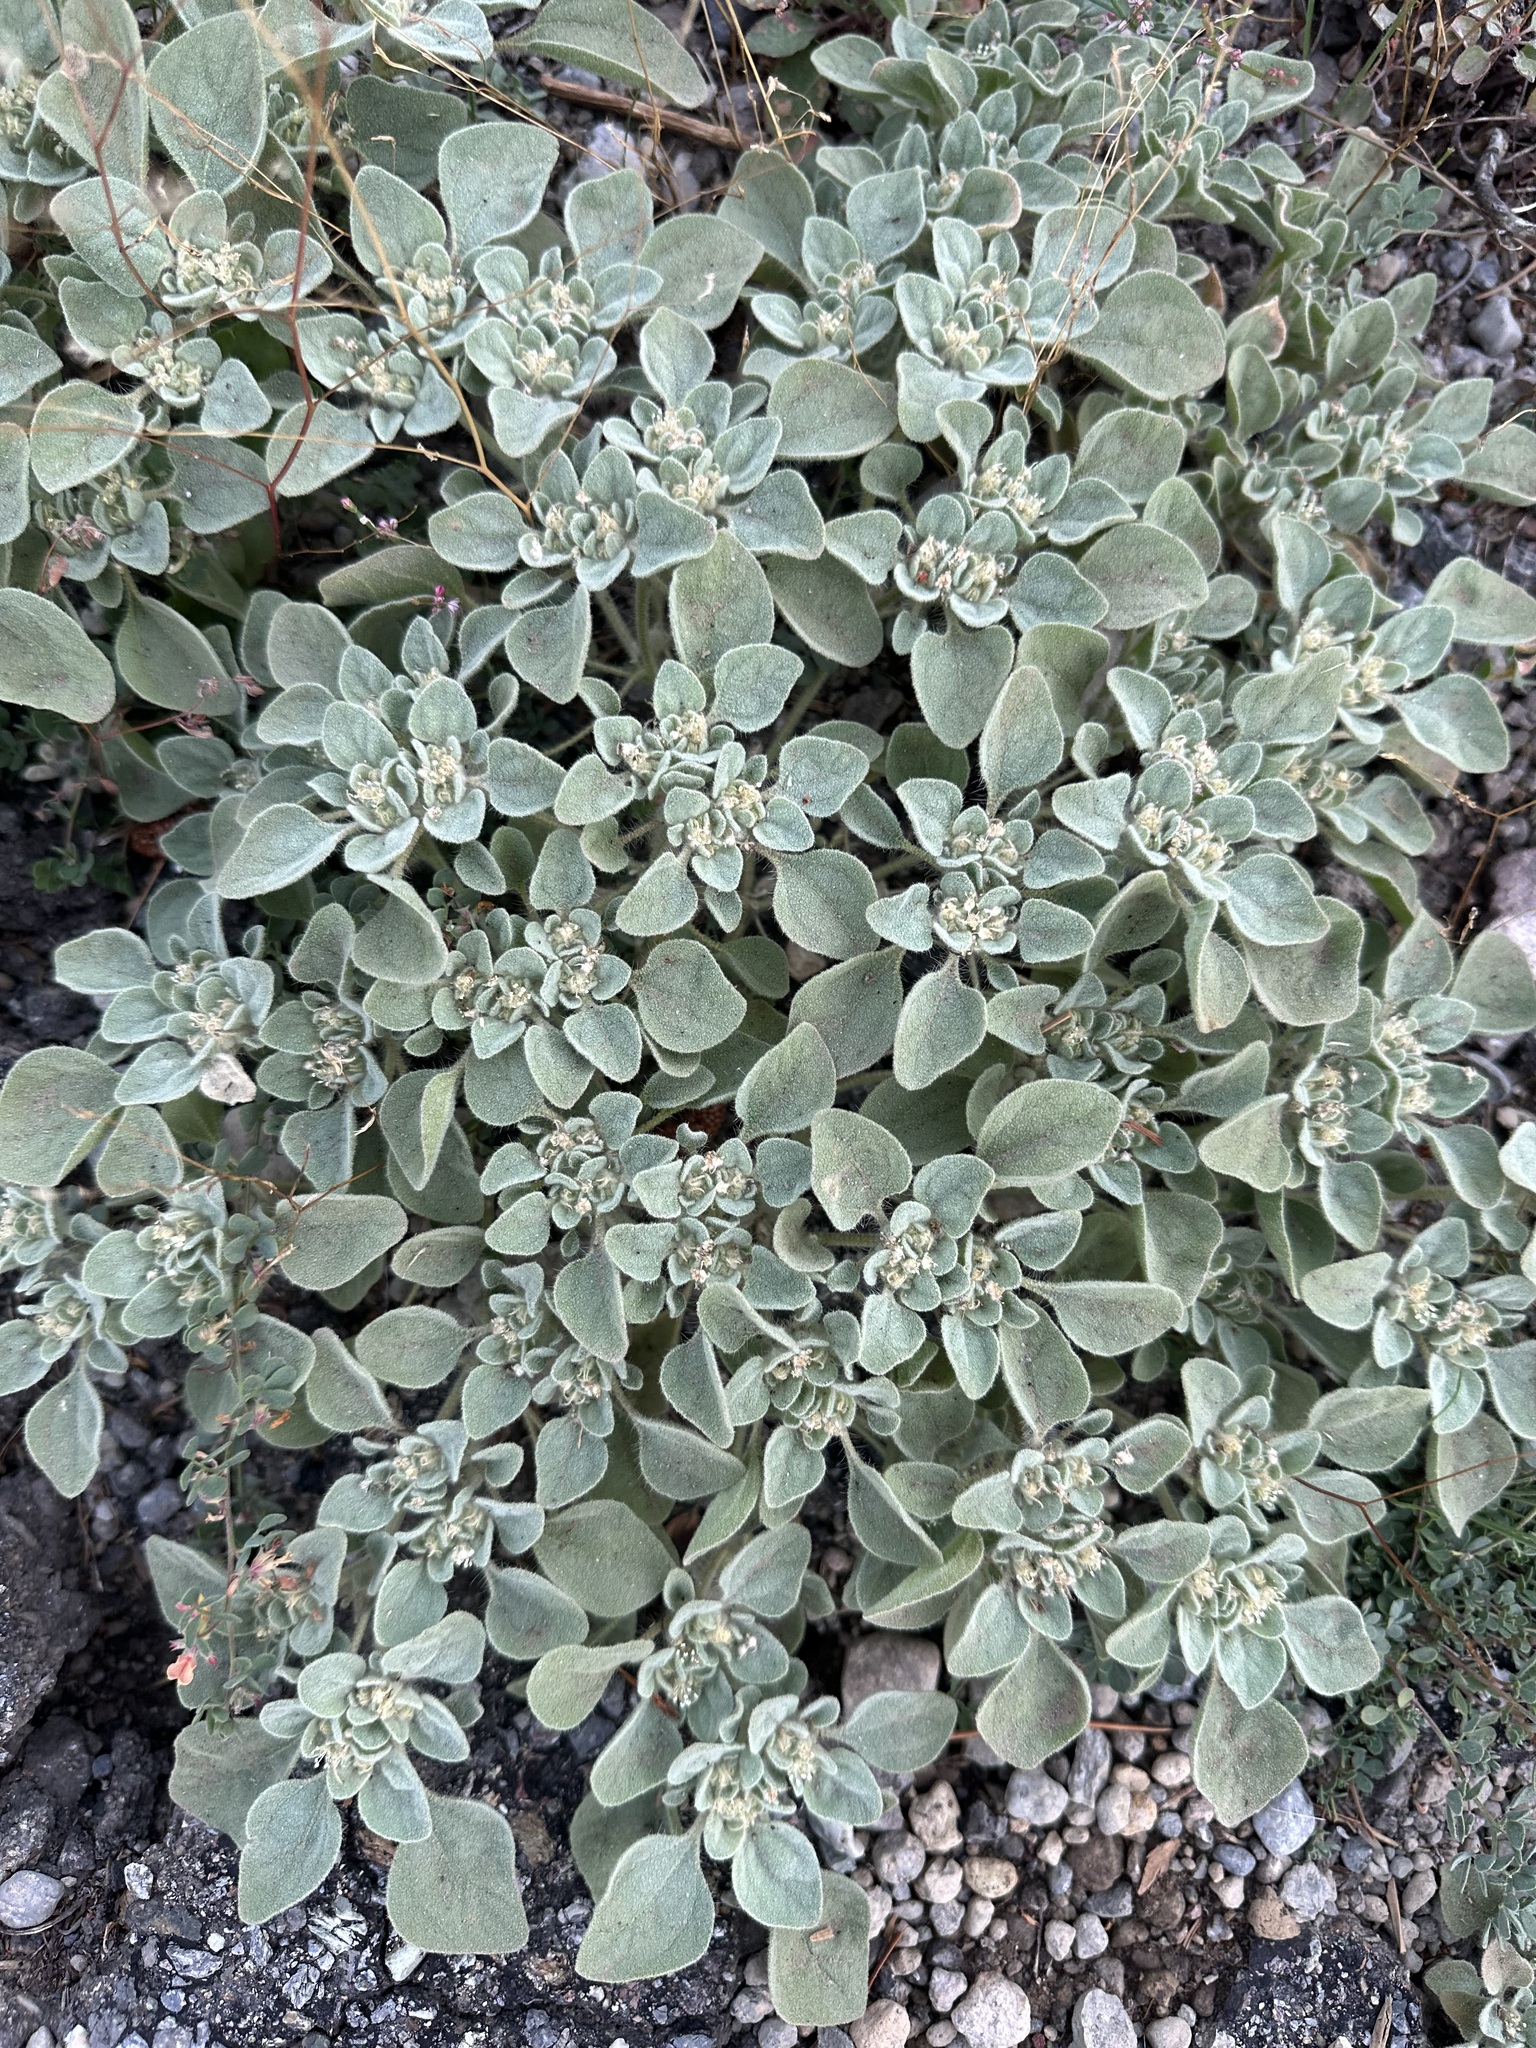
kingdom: Plantae
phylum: Tracheophyta
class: Magnoliopsida
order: Malpighiales
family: Euphorbiaceae
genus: Croton
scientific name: Croton setiger
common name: Dove weed
